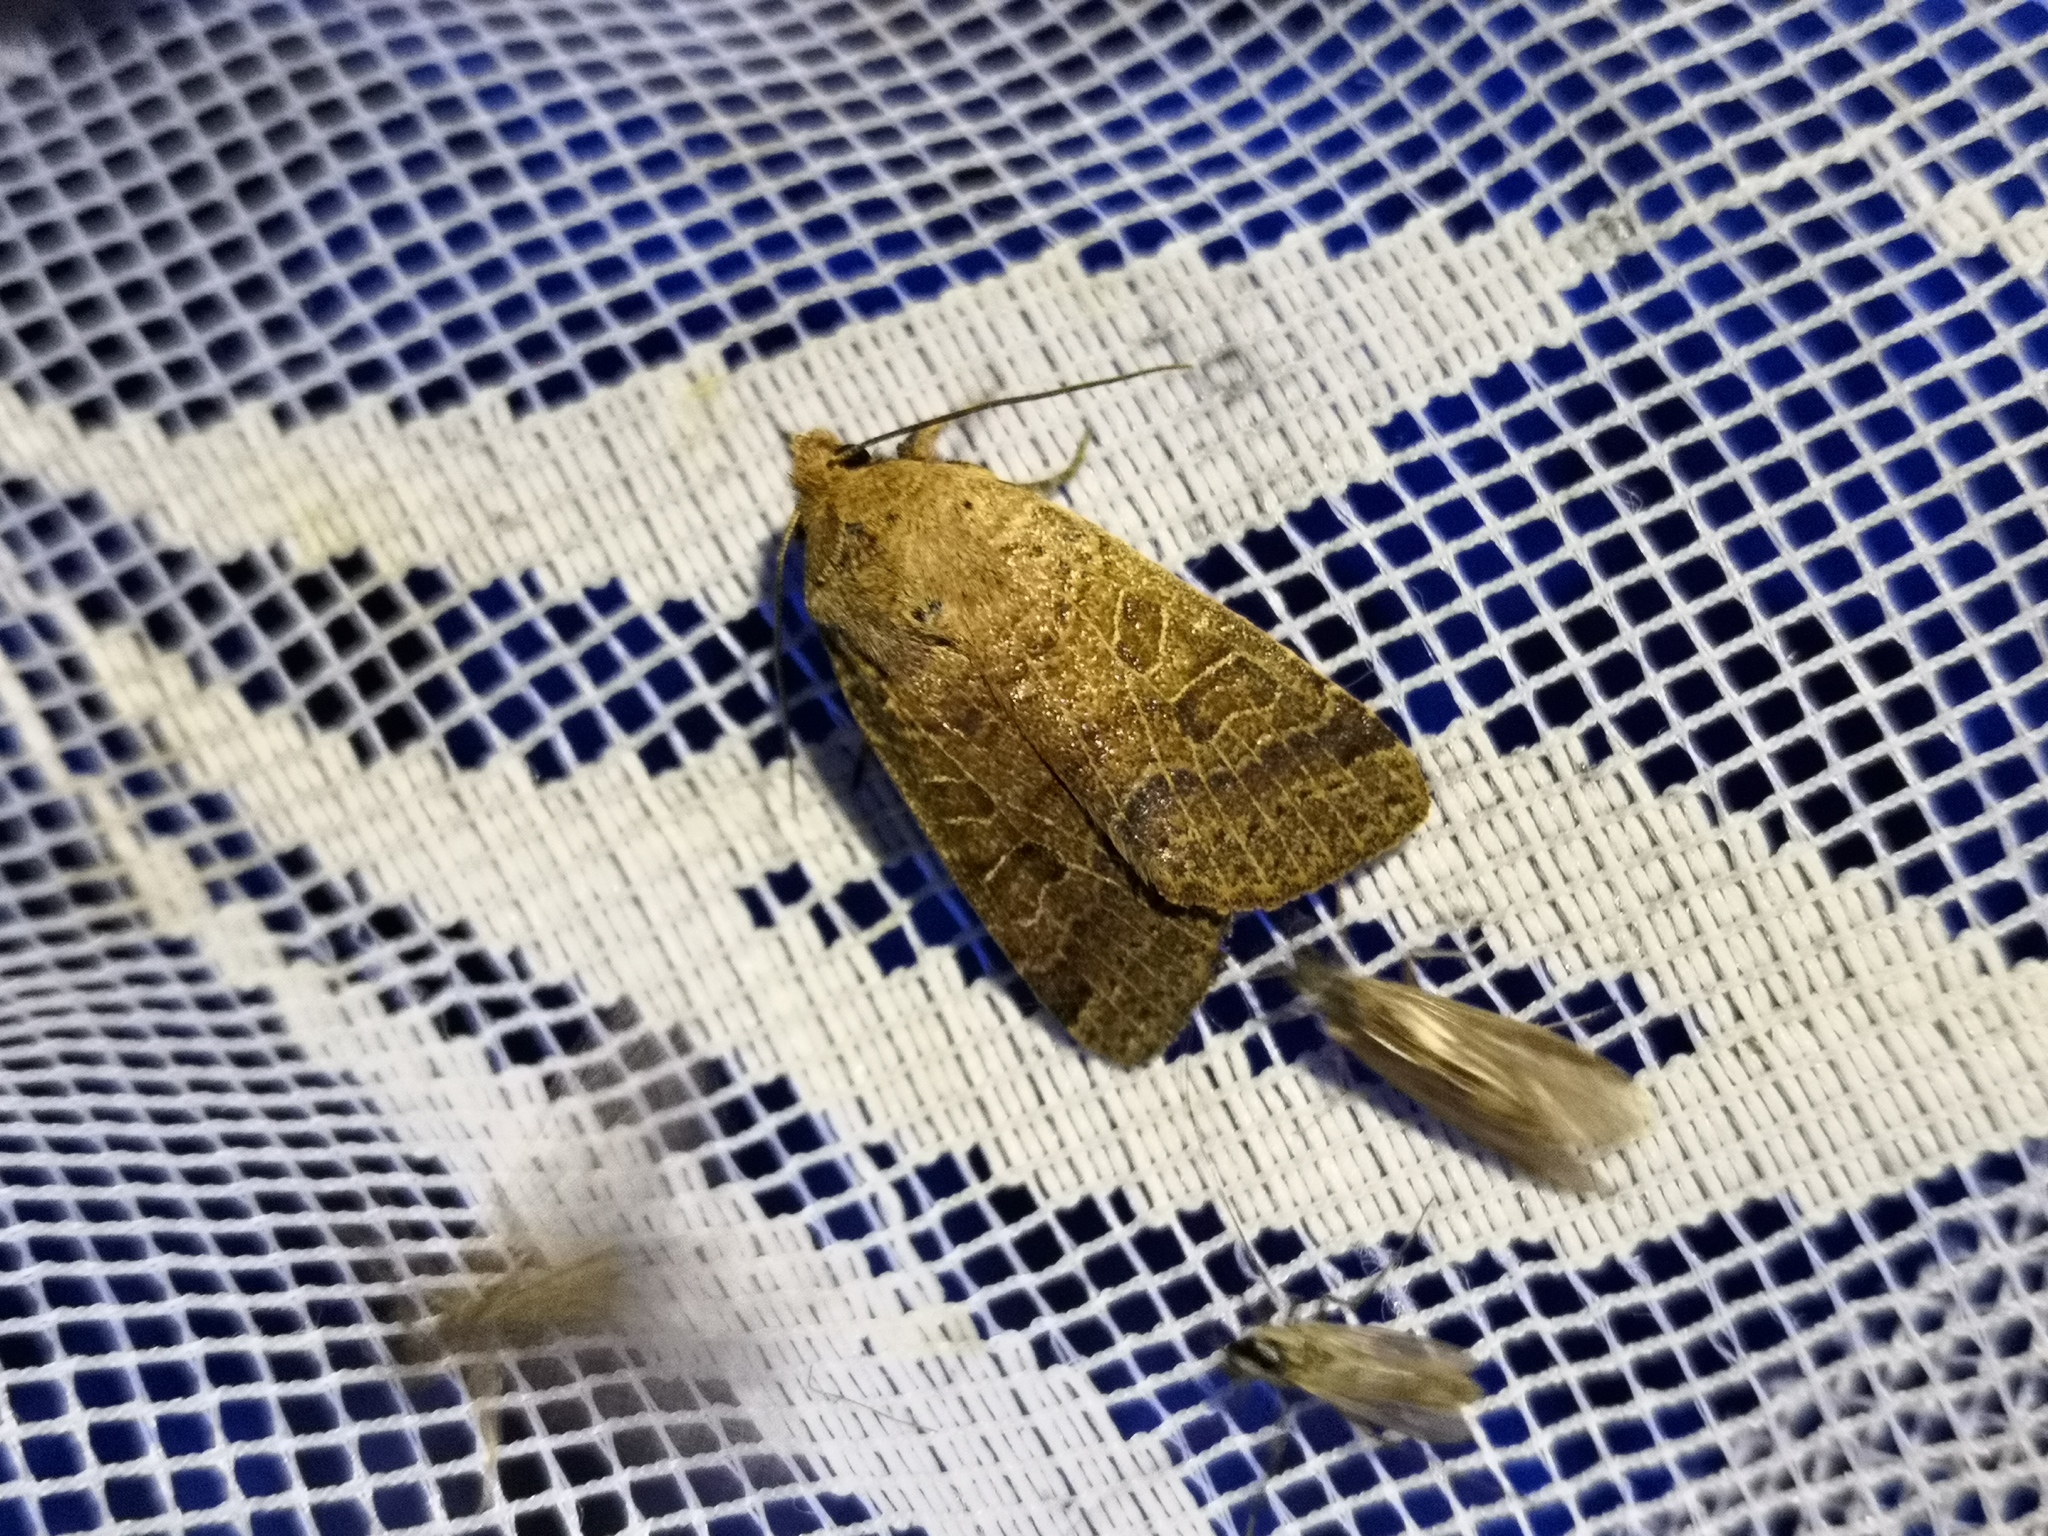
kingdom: Animalia
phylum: Arthropoda
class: Insecta
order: Lepidoptera
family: Noctuidae
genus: Agrochola
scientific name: Agrochola nitida
